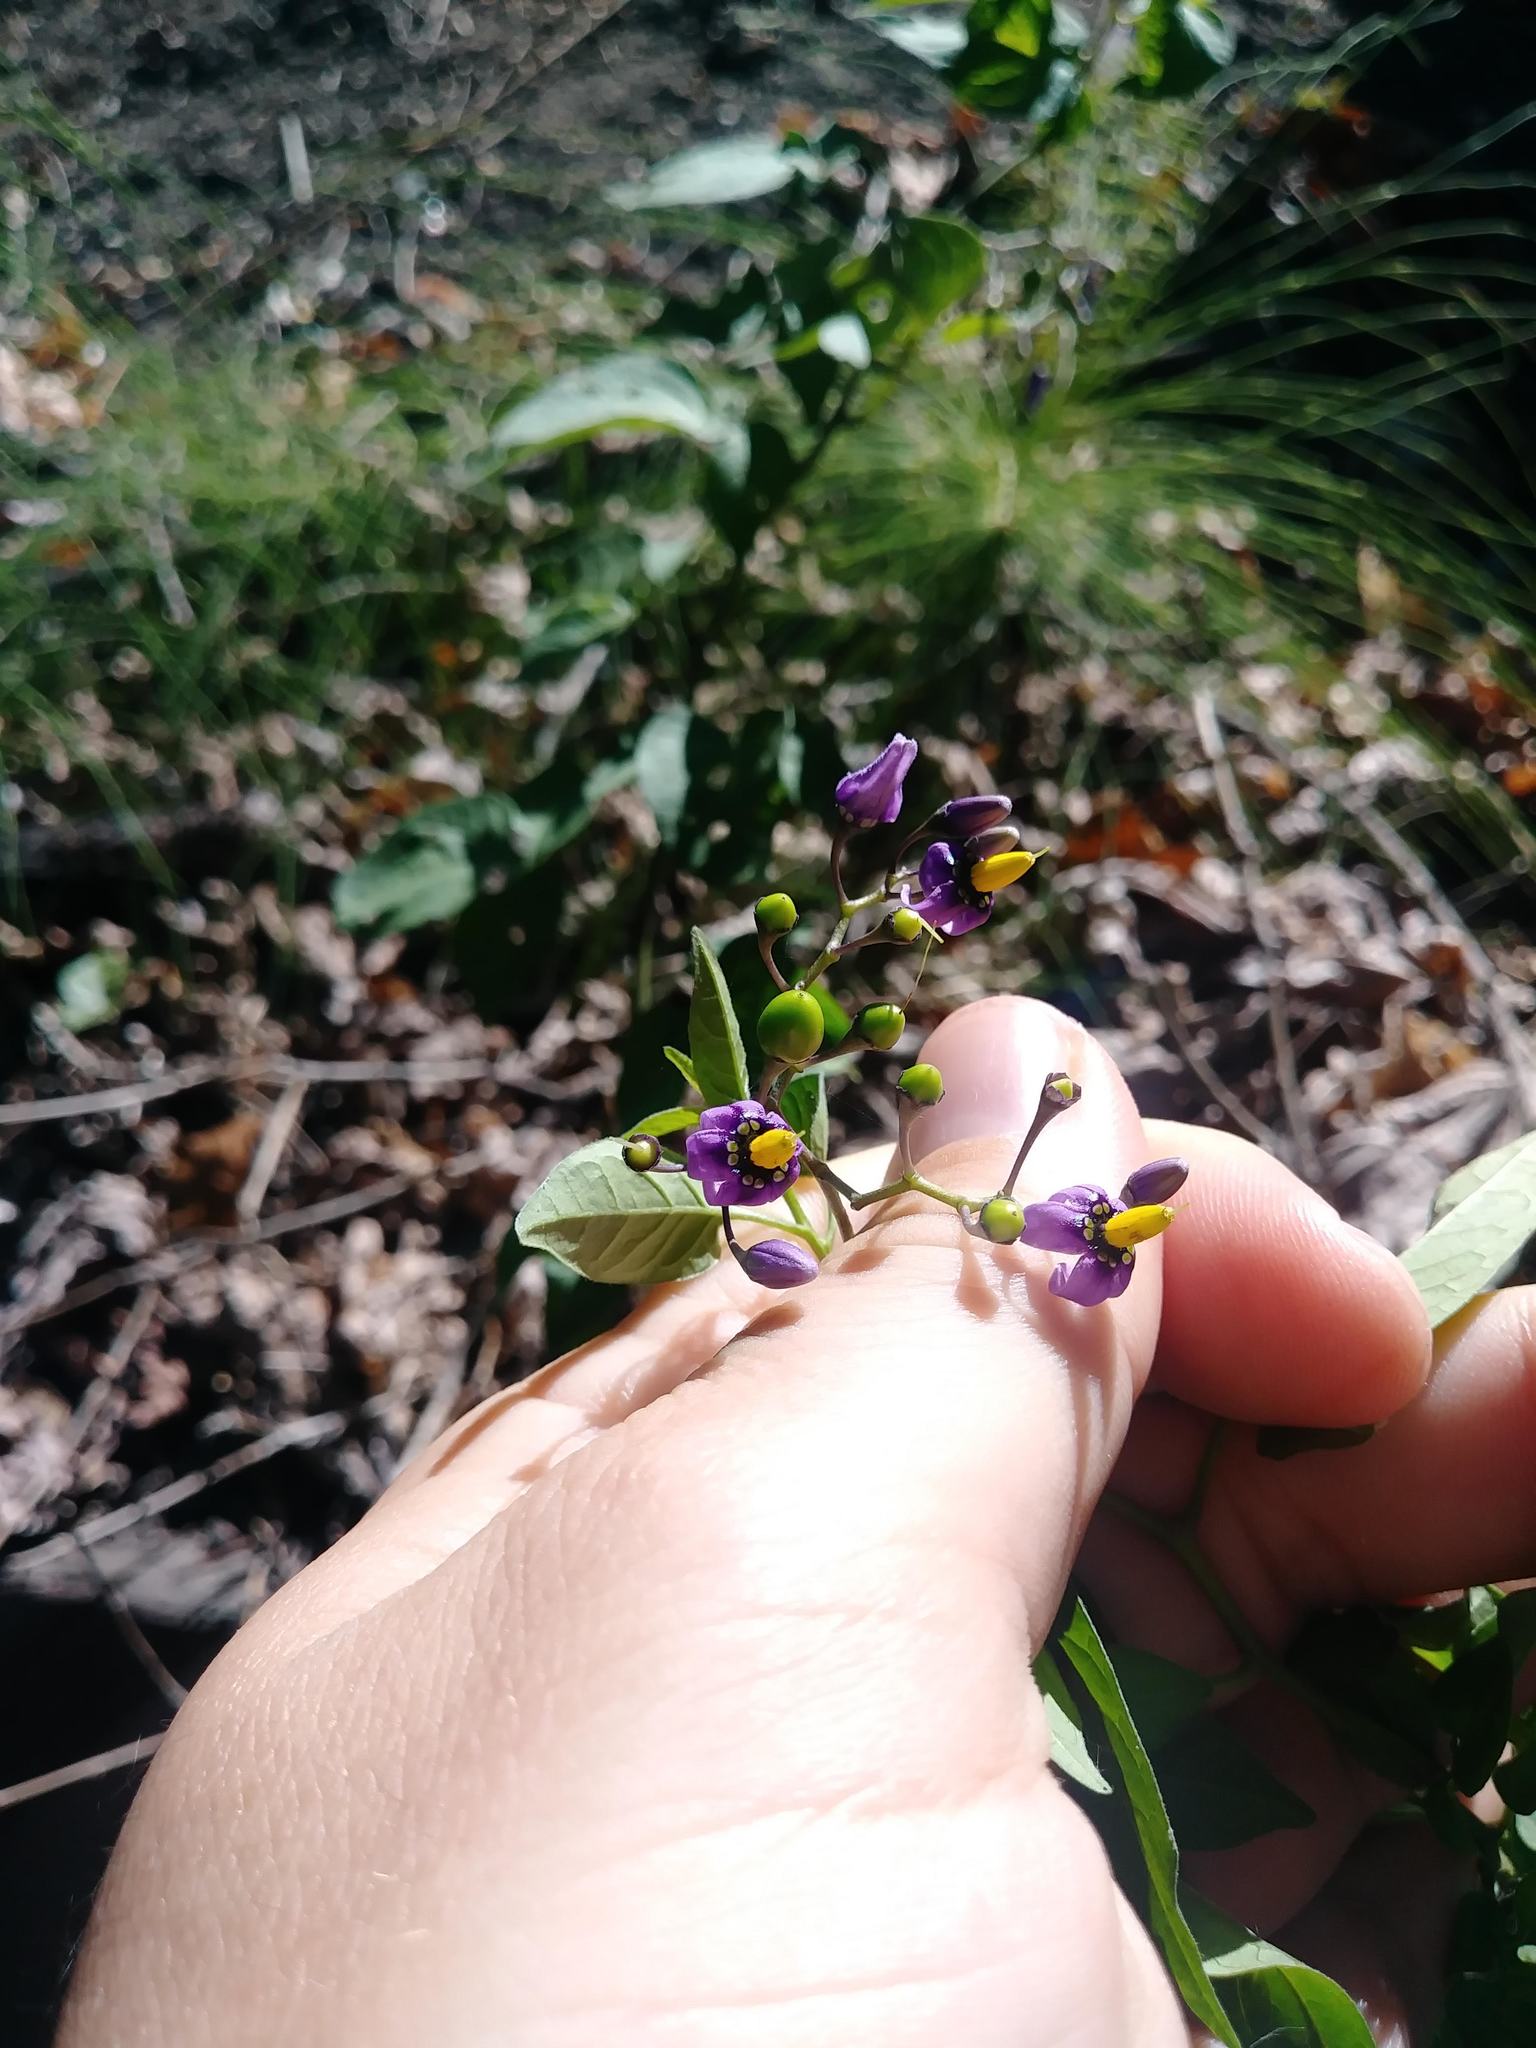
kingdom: Plantae
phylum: Tracheophyta
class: Magnoliopsida
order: Solanales
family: Solanaceae
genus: Solanum
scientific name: Solanum dulcamara
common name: Climbing nightshade
